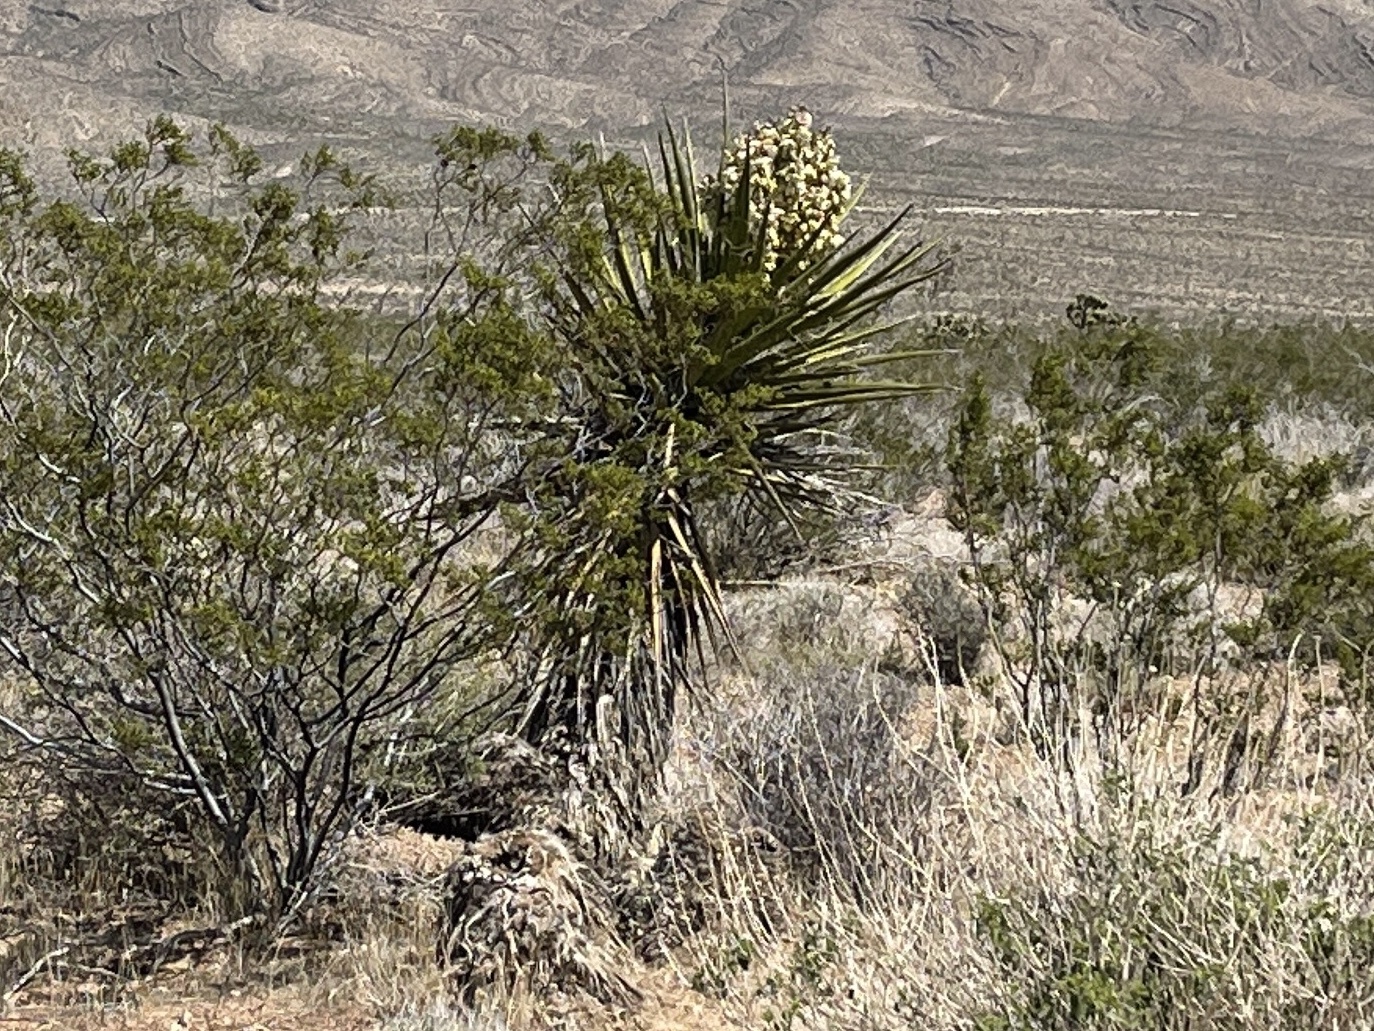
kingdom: Plantae
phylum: Tracheophyta
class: Liliopsida
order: Asparagales
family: Asparagaceae
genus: Yucca
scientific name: Yucca schidigera
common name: Mojave yucca
